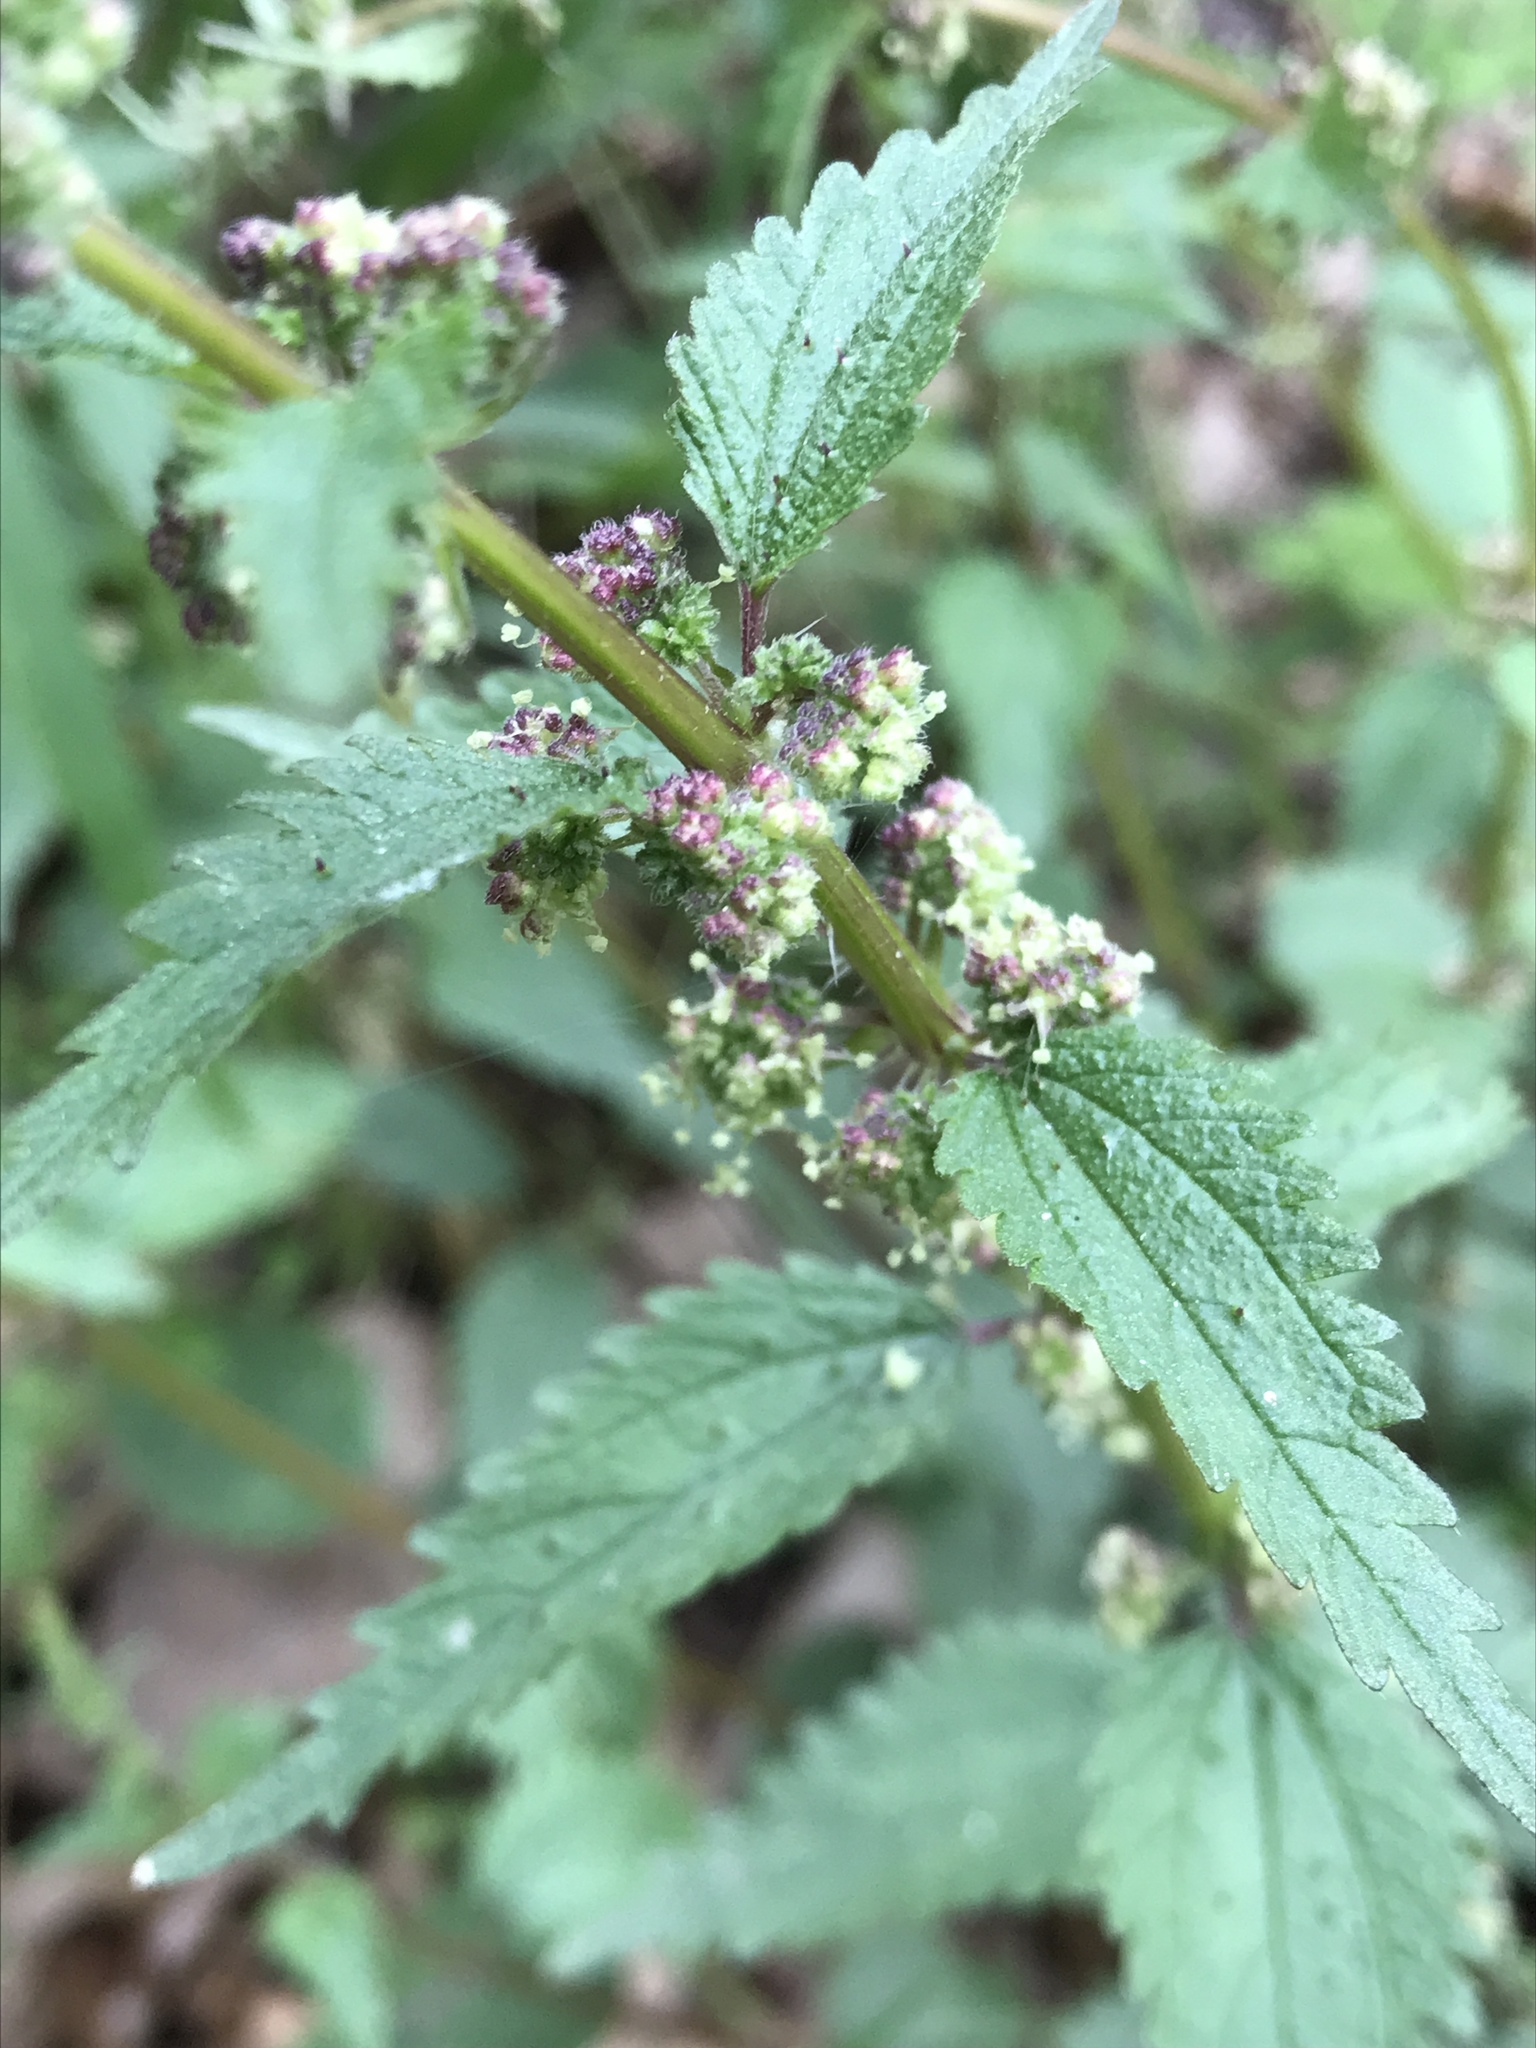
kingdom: Plantae
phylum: Tracheophyta
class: Magnoliopsida
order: Rosales
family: Urticaceae
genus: Urtica
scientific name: Urtica chamaedryoides
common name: Heart-leaf nettle
